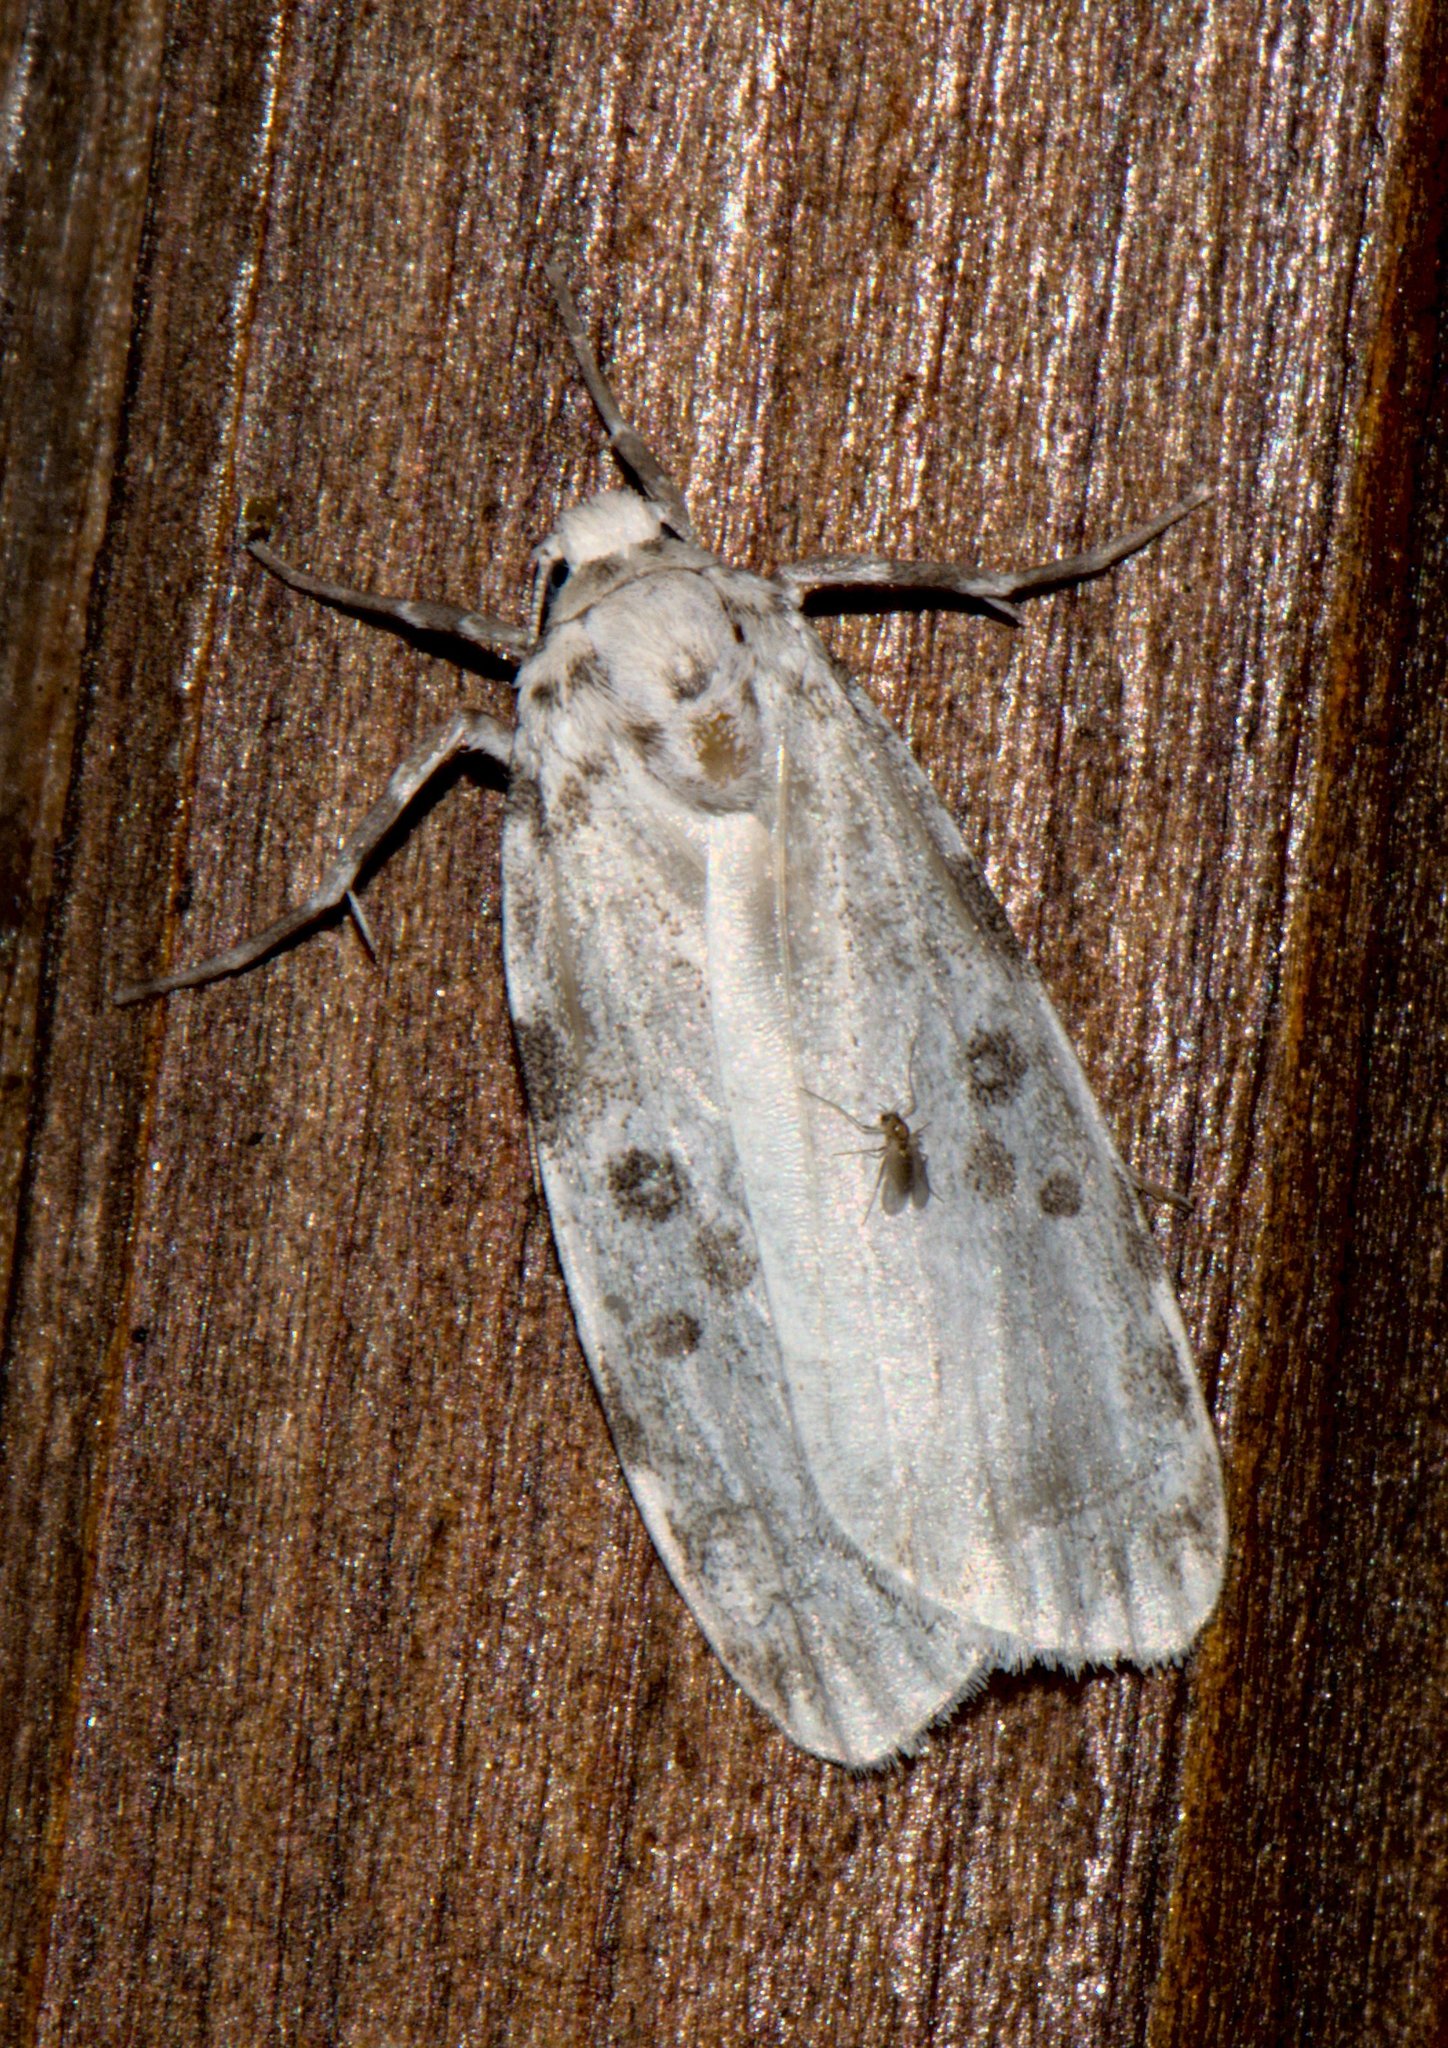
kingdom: Animalia
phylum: Arthropoda
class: Insecta
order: Lepidoptera
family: Erebidae
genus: Cyana
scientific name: Cyana detrita
